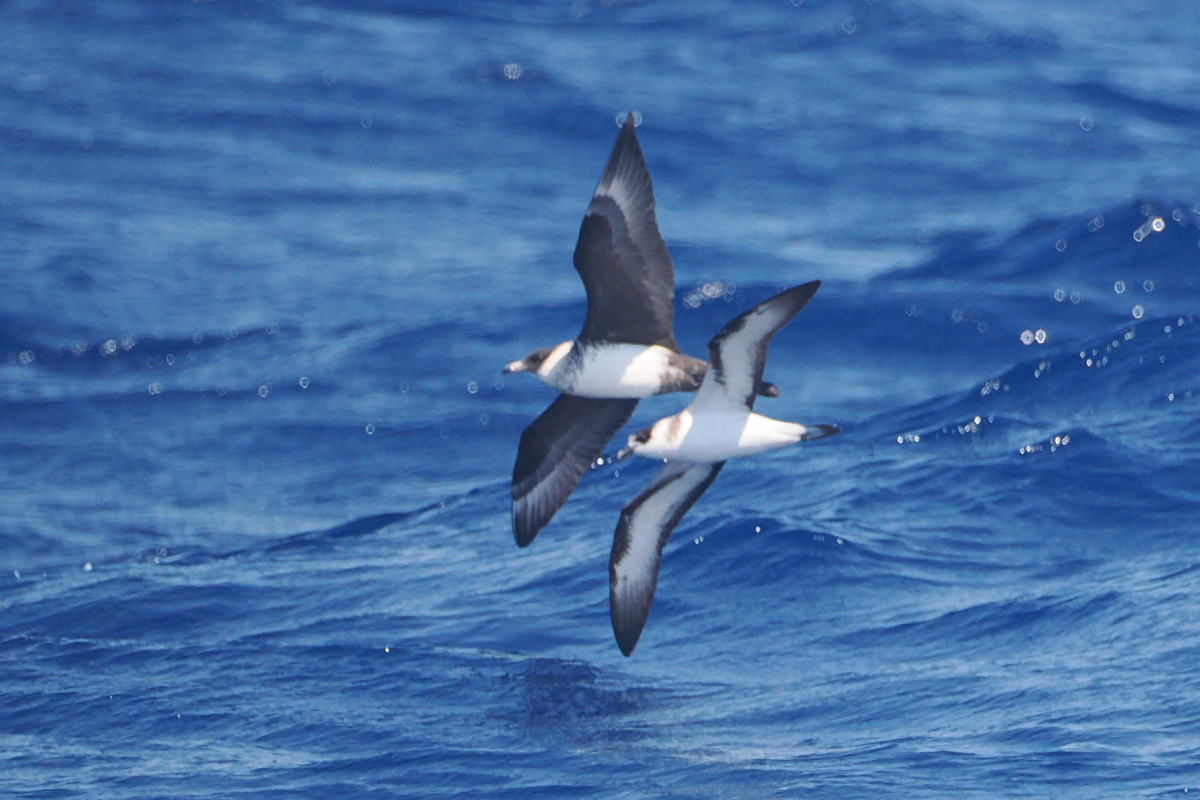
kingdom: Animalia
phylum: Chordata
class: Aves
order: Procellariiformes
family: Procellariidae
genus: Pterodroma
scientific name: Pterodroma hasitata
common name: Black-capped petrel
